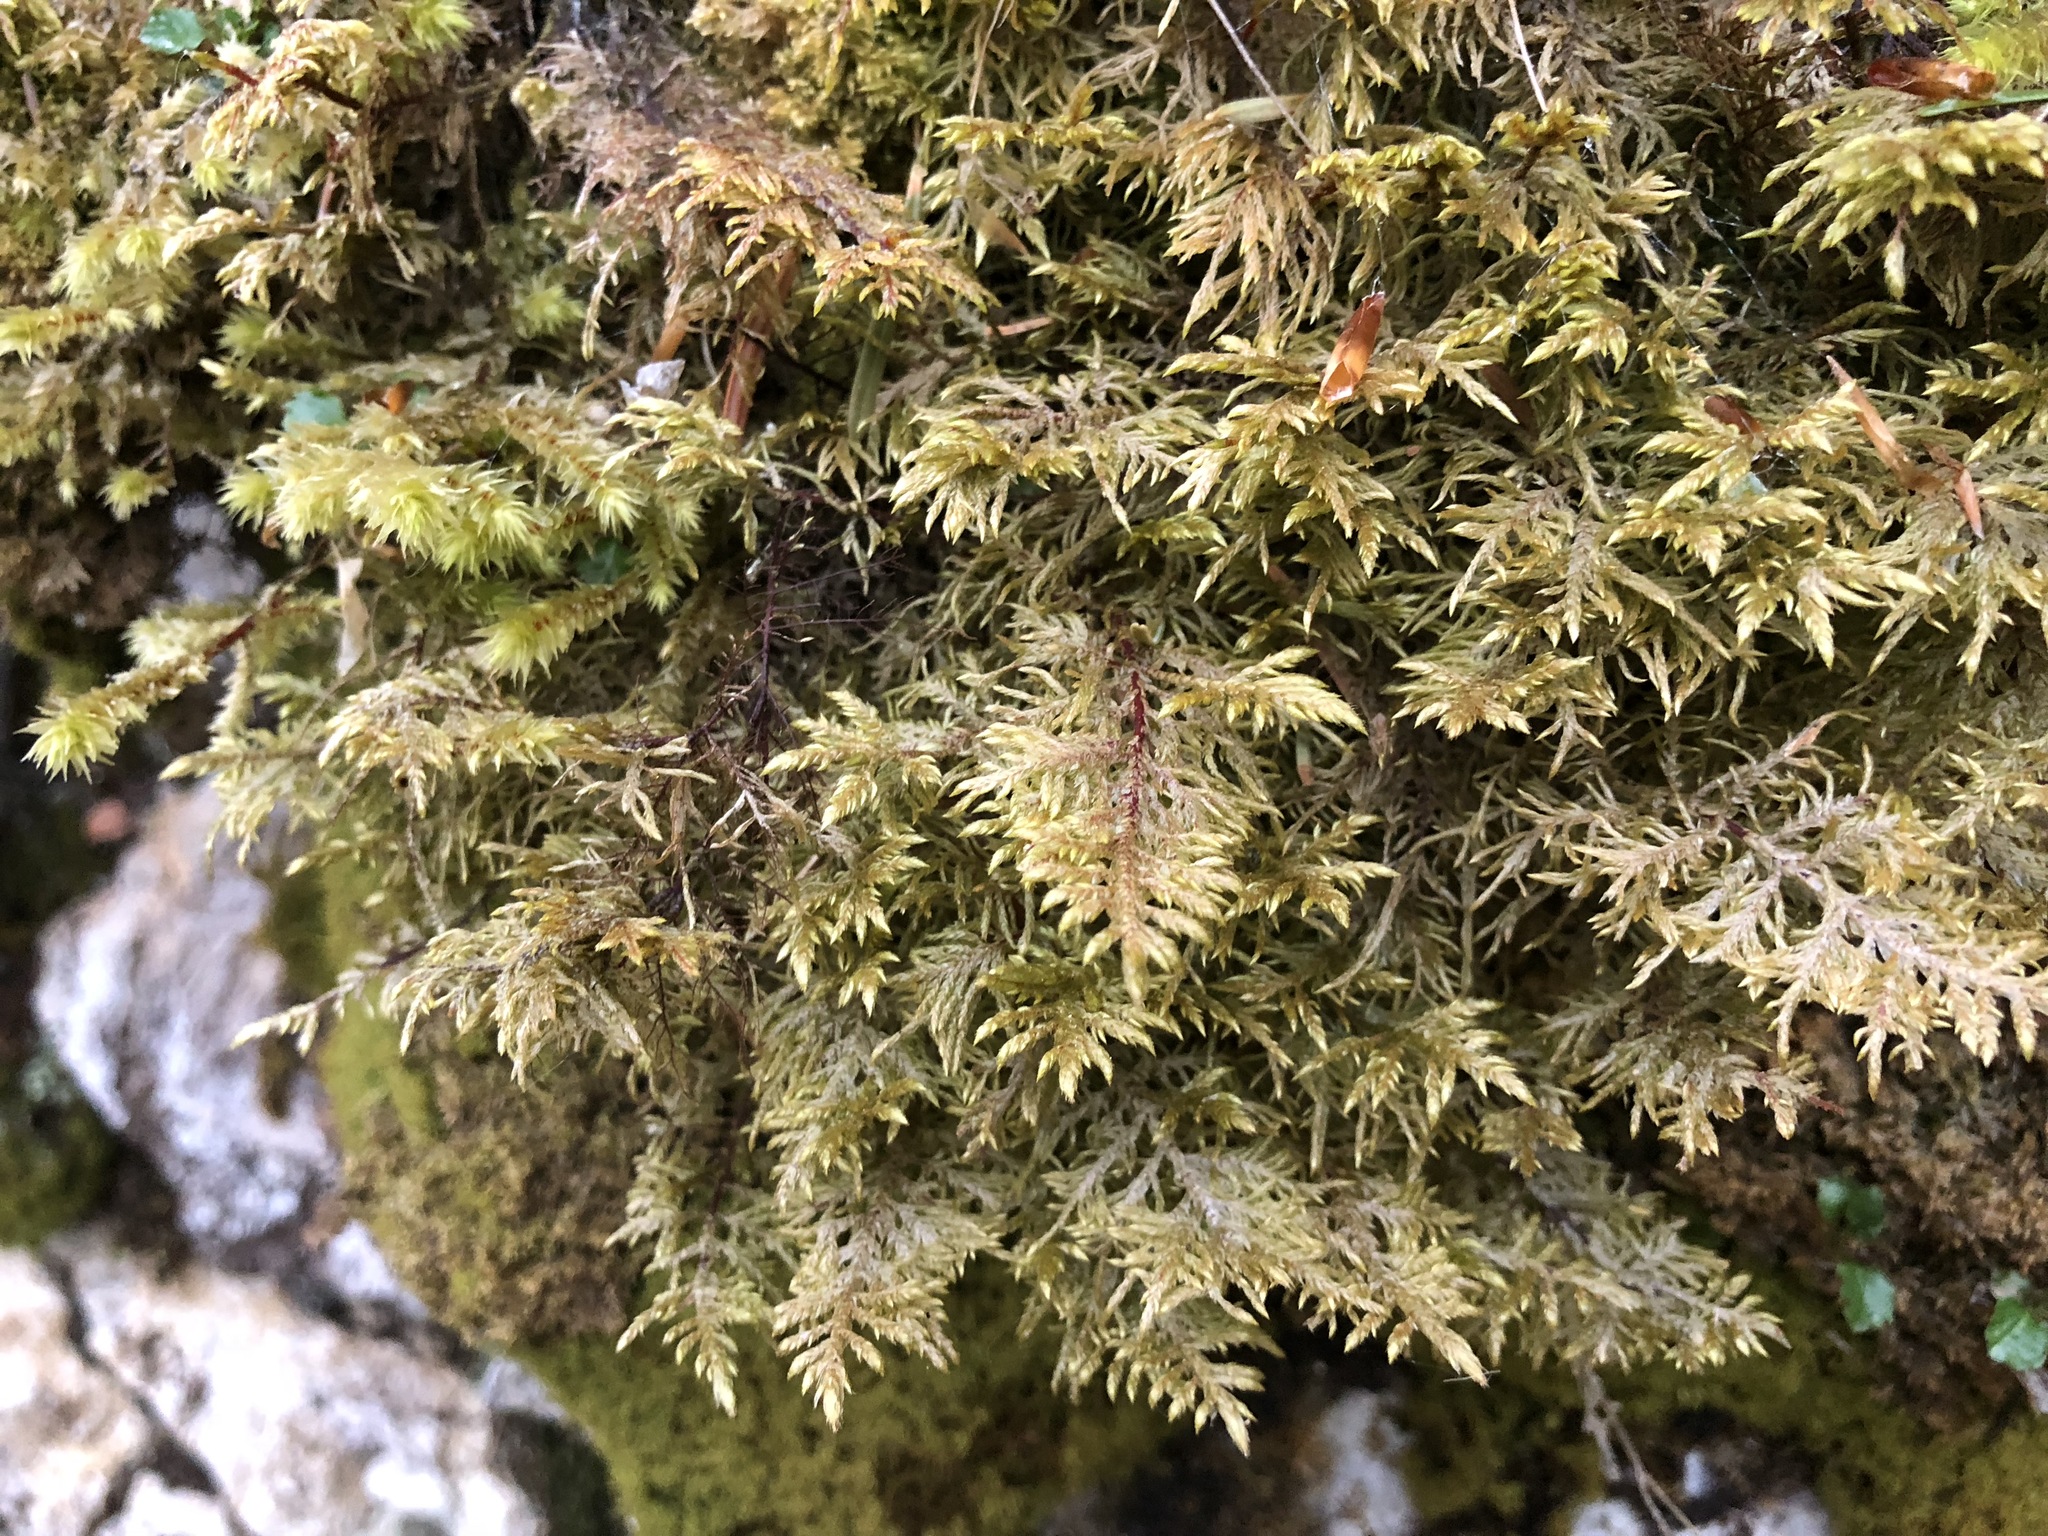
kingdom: Plantae
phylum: Bryophyta
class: Bryopsida
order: Hypnales
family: Hylocomiaceae
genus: Hylocomium
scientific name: Hylocomium splendens
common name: Stairstep moss
